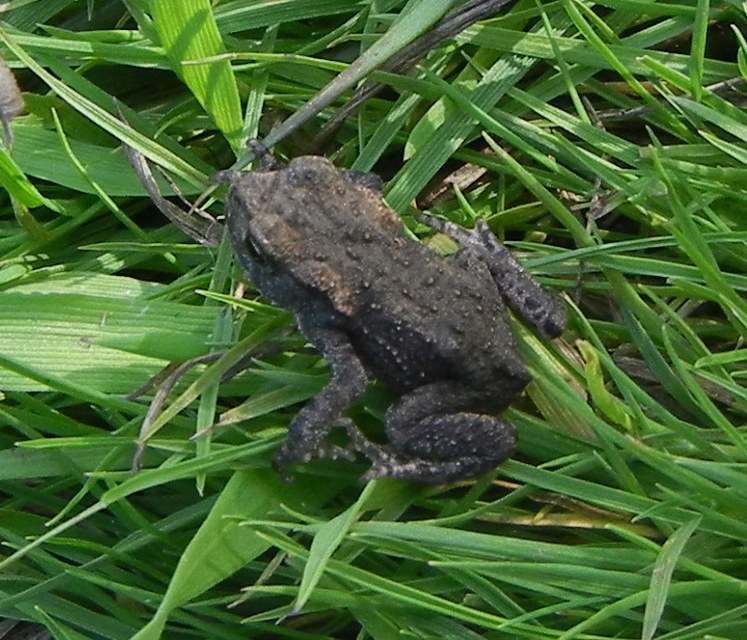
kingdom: Animalia
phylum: Chordata
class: Amphibia
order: Anura
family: Bufonidae
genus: Bufo
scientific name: Bufo bufo
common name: Common toad
